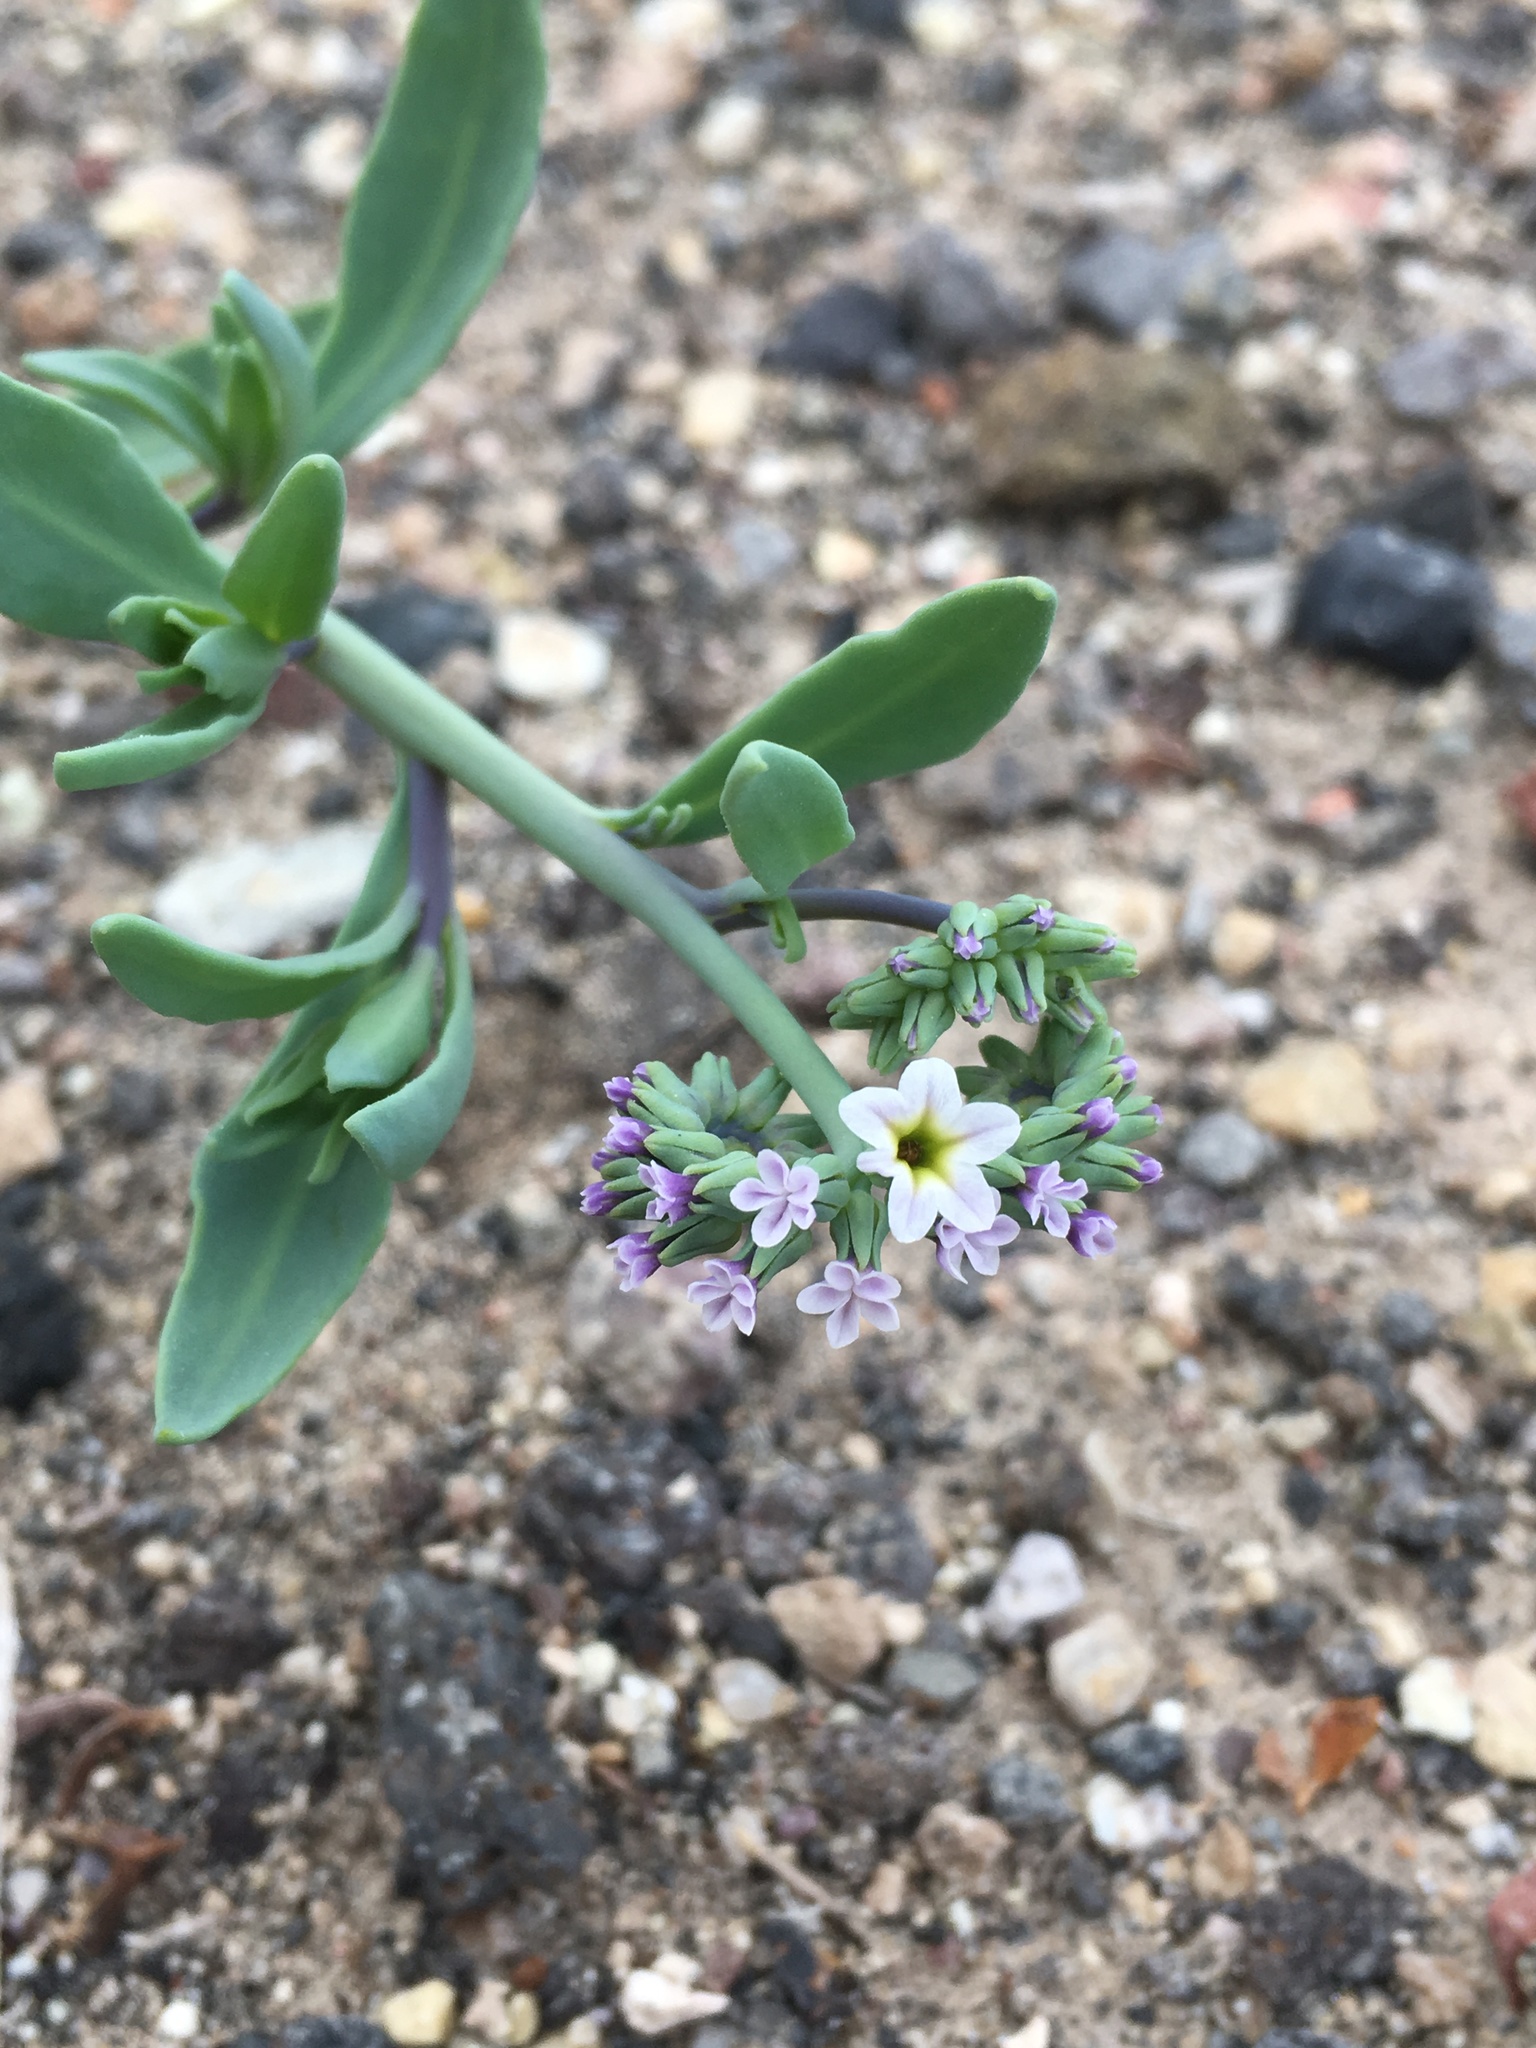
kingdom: Plantae
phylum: Tracheophyta
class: Magnoliopsida
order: Boraginales
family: Heliotropiaceae
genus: Heliotropium
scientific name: Heliotropium curassavicum
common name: Seaside heliotrope
